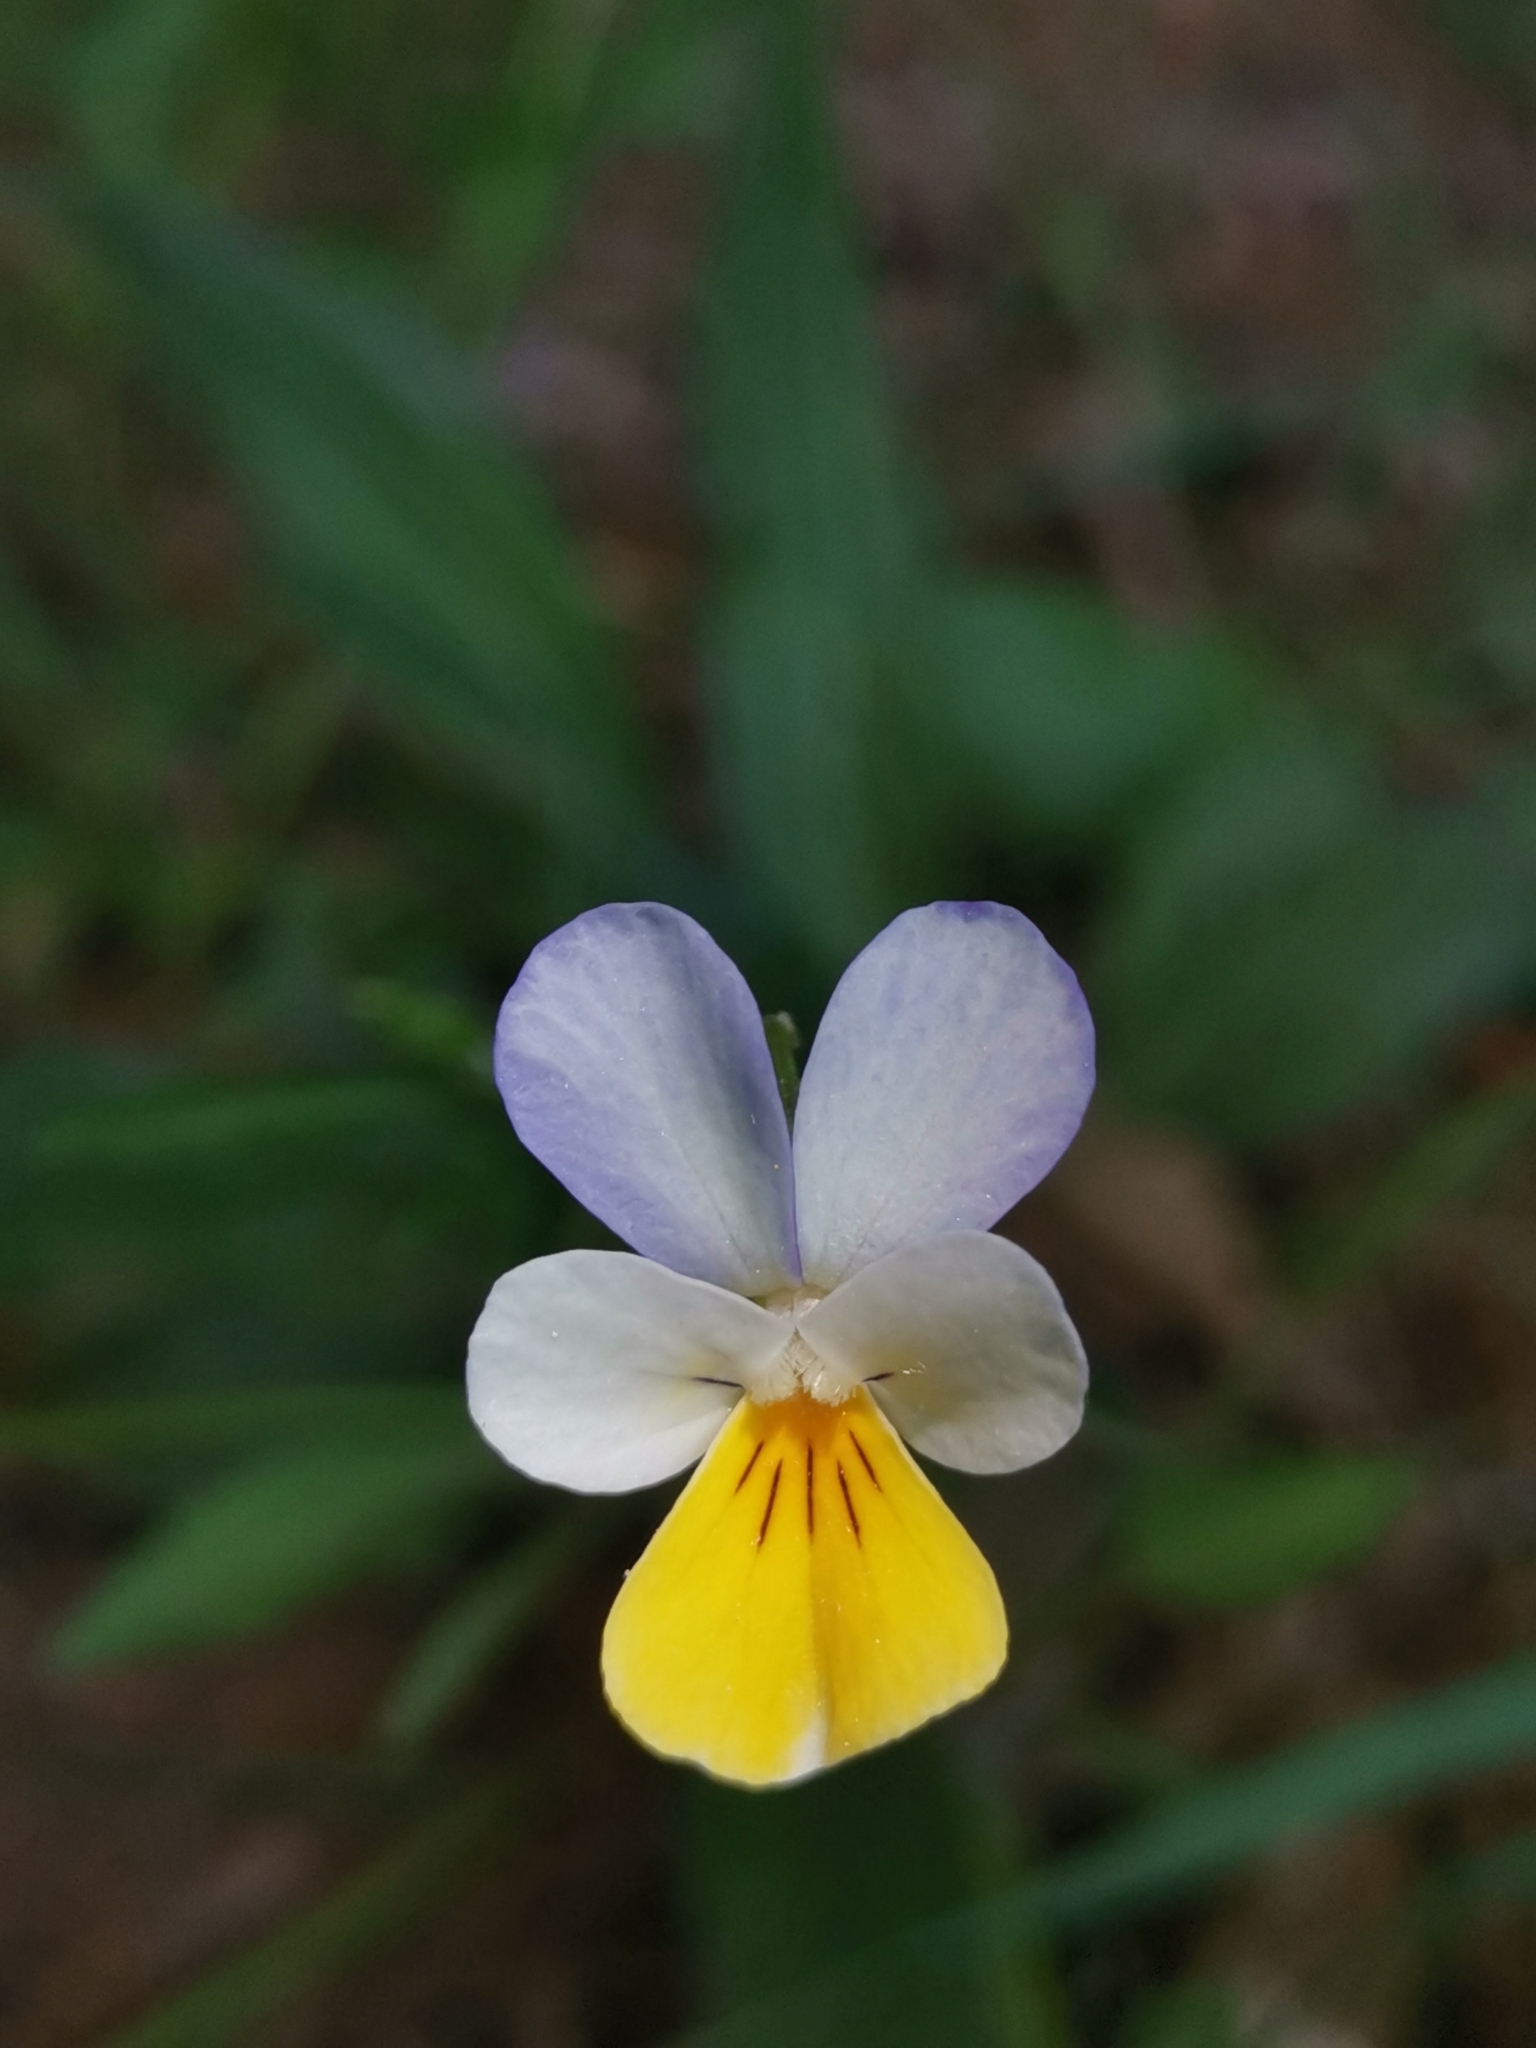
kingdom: Plantae
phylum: Tracheophyta
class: Magnoliopsida
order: Malpighiales
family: Violaceae
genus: Viola
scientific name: Viola tricolor
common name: Pansy
